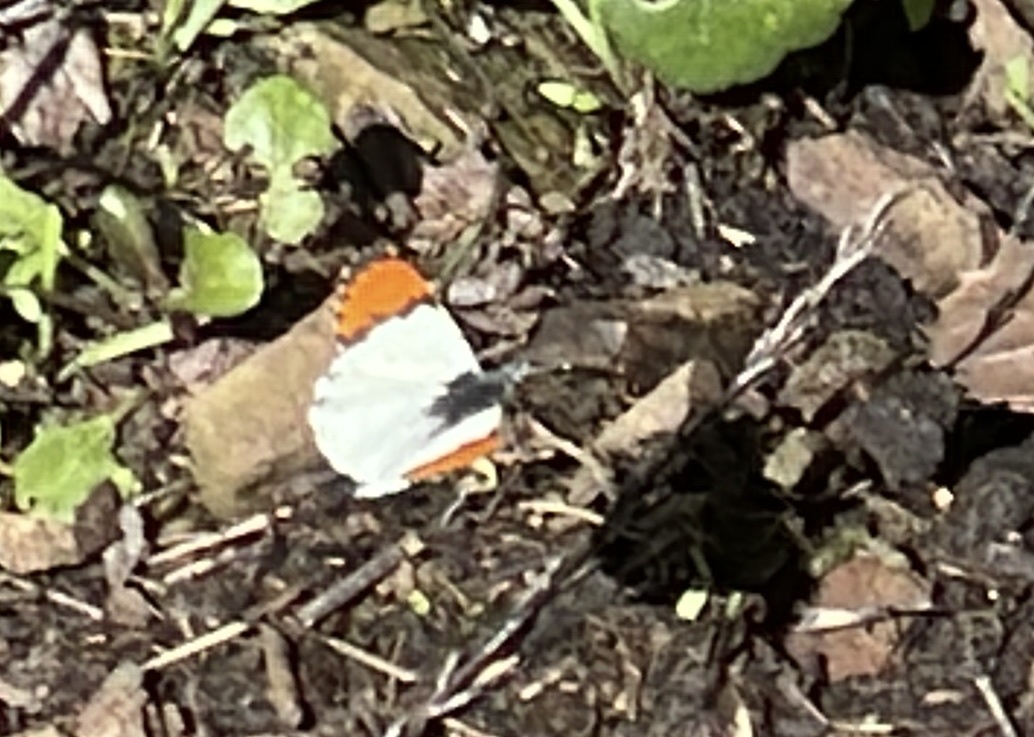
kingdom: Animalia
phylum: Arthropoda
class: Insecta
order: Lepidoptera
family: Pieridae
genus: Anthocharis
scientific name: Anthocharis sara
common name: Sara's orangetip
